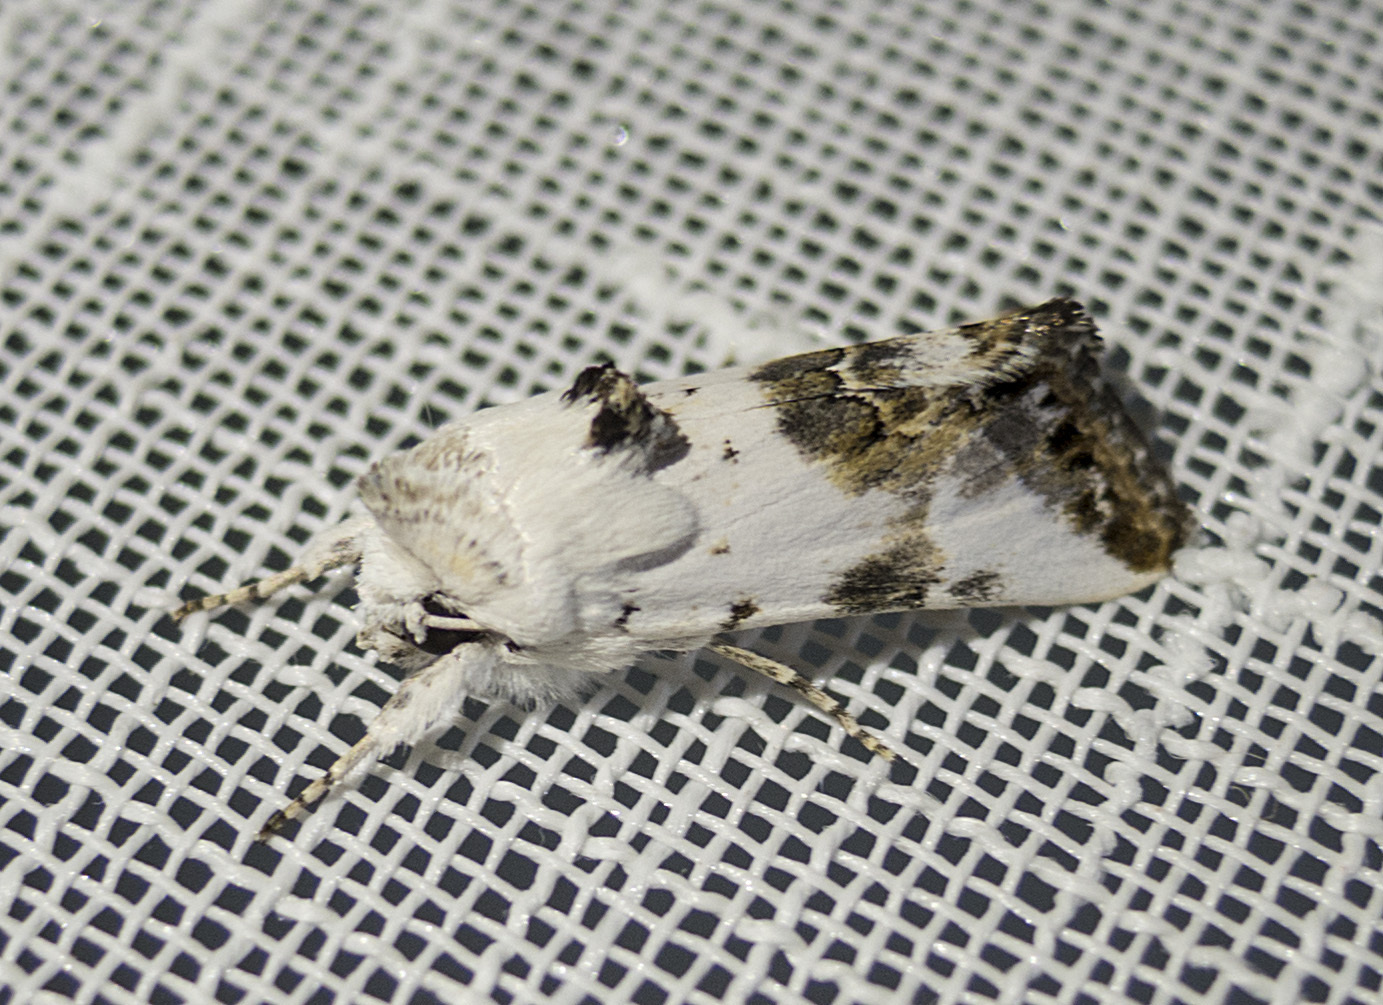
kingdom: Animalia
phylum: Arthropoda
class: Insecta
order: Lepidoptera
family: Noctuidae
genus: Calophasia
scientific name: Calophasia opalina
